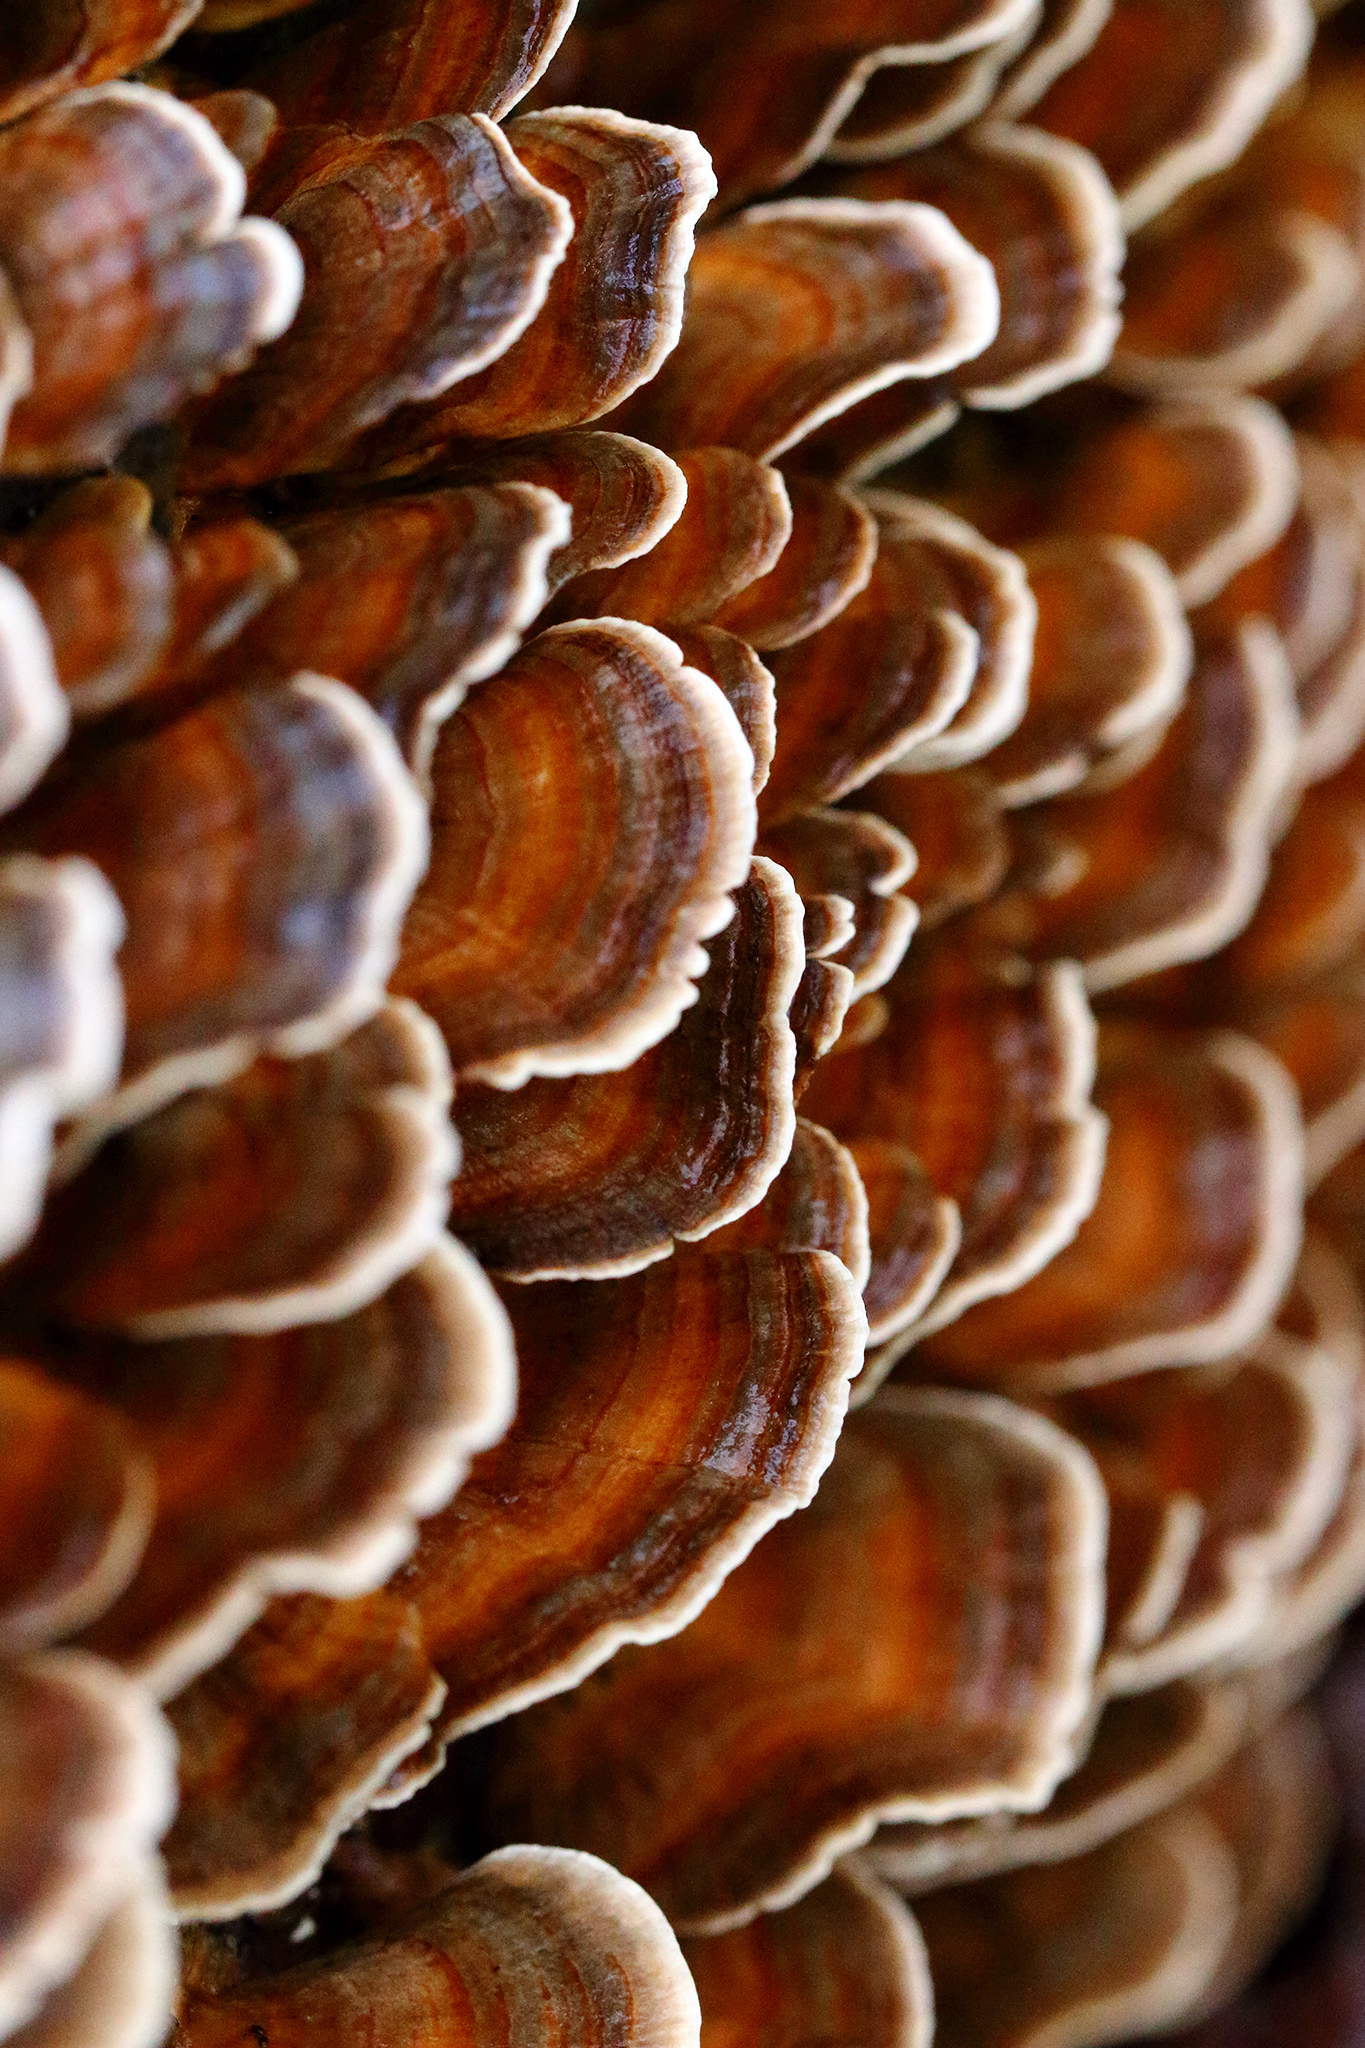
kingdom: Fungi
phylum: Basidiomycota
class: Agaricomycetes
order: Polyporales
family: Polyporaceae
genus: Trametes
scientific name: Trametes versicolor
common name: Turkeytail
